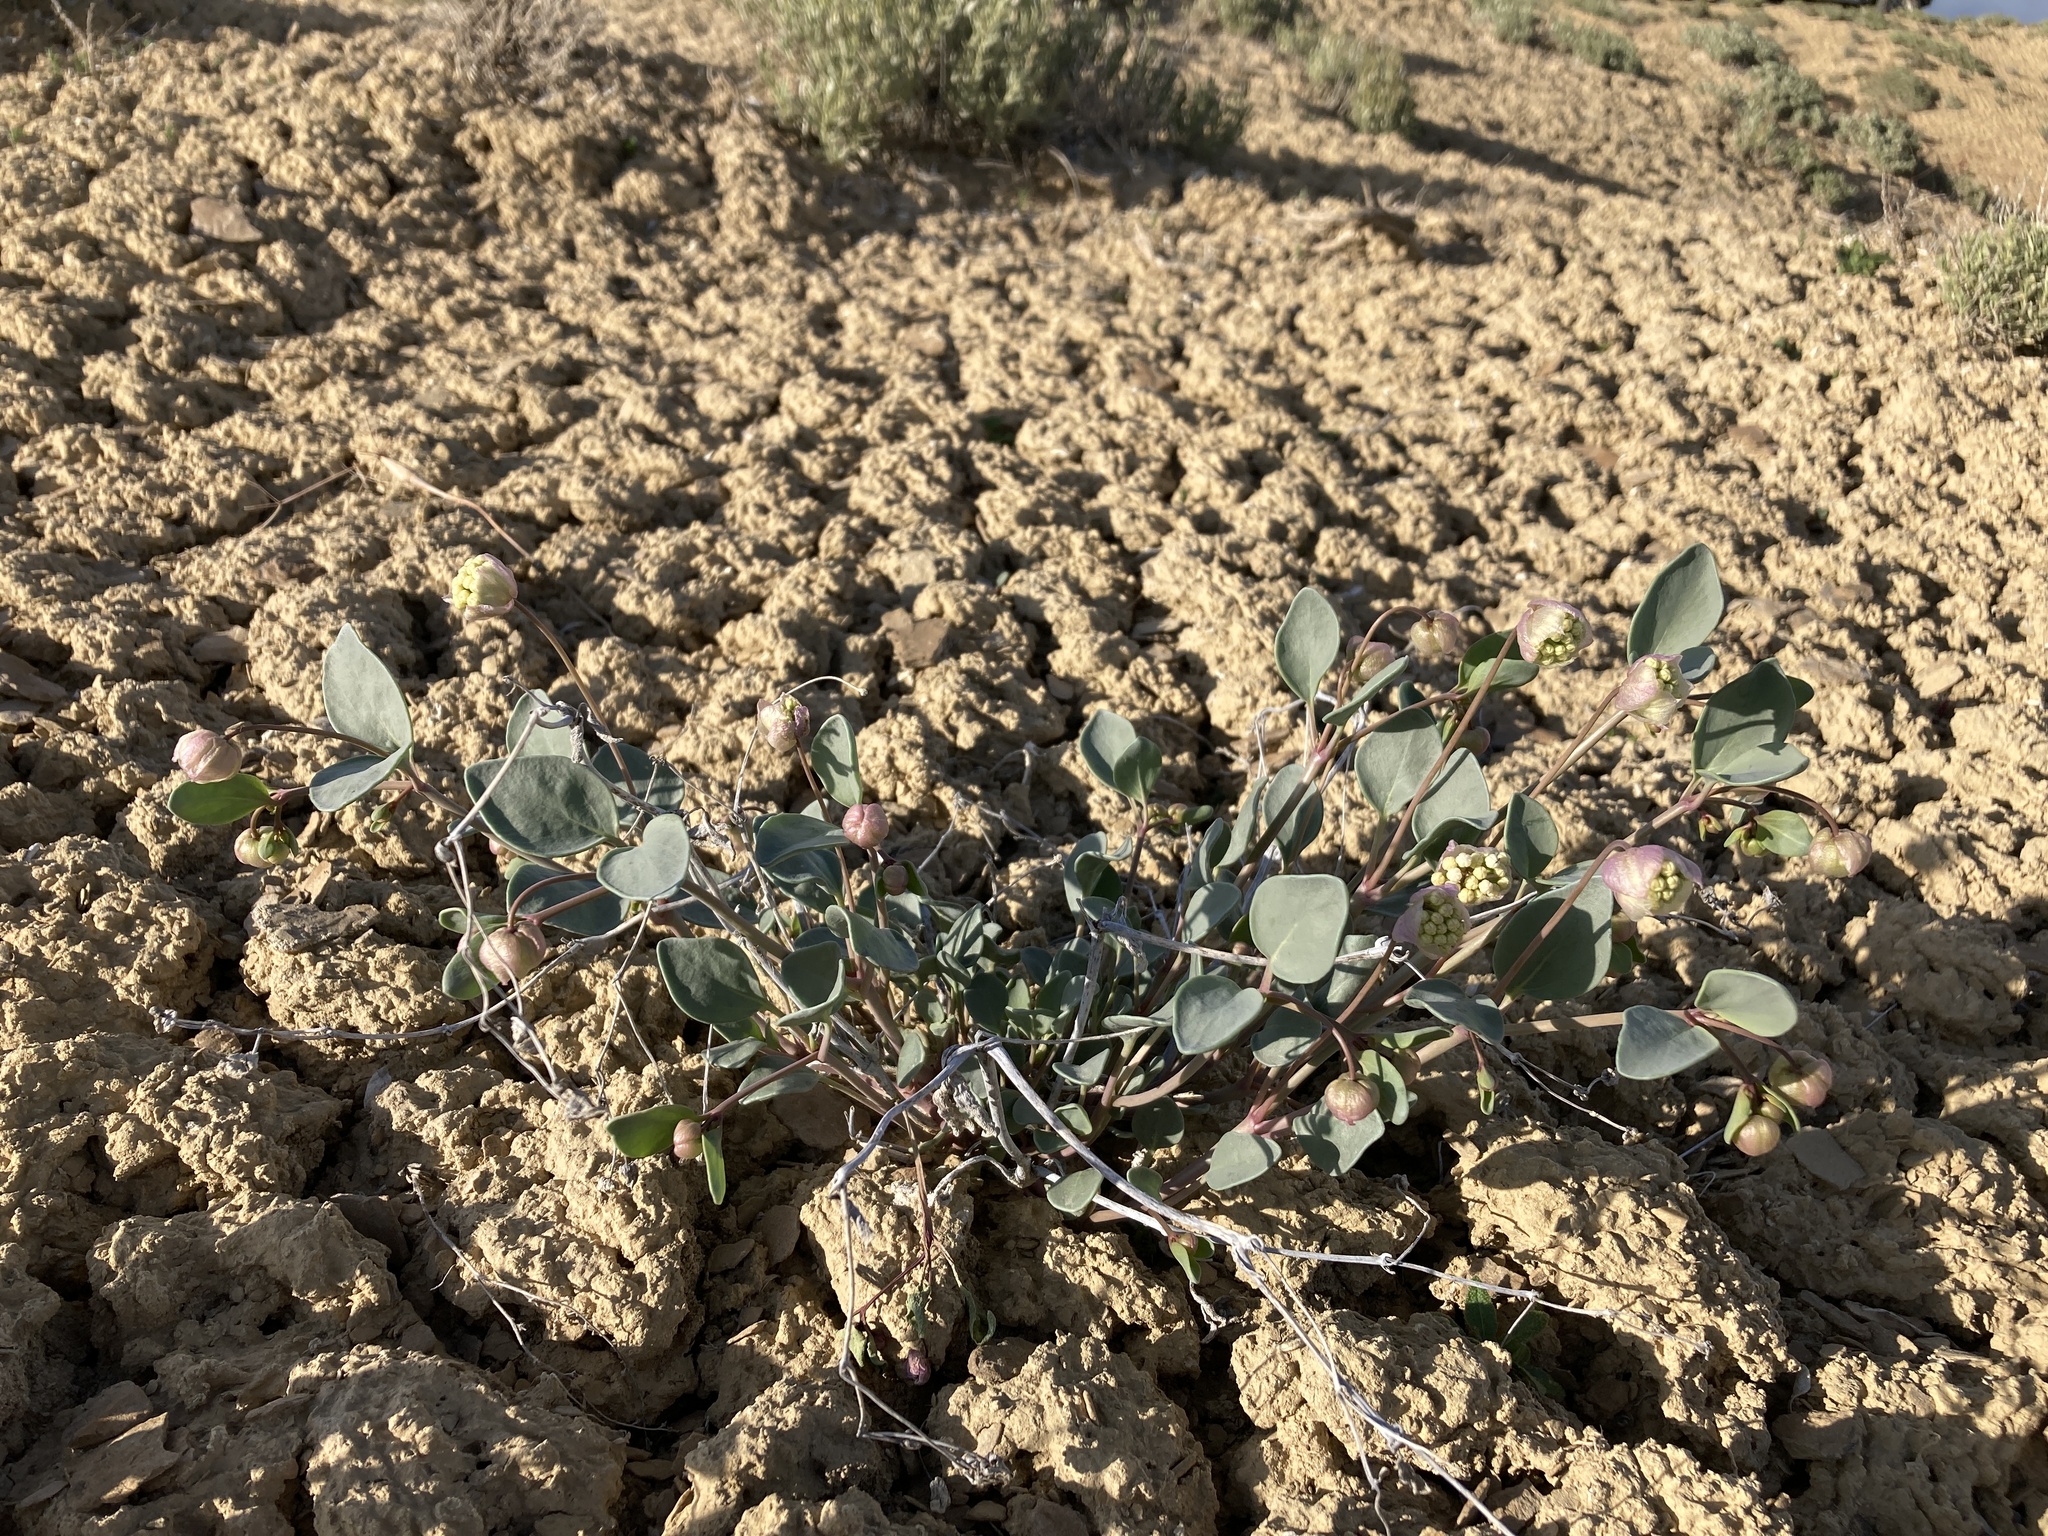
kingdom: Plantae
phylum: Tracheophyta
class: Magnoliopsida
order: Caryophyllales
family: Nyctaginaceae
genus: Abronia
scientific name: Abronia glabrifolia
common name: Clay sand verbena
